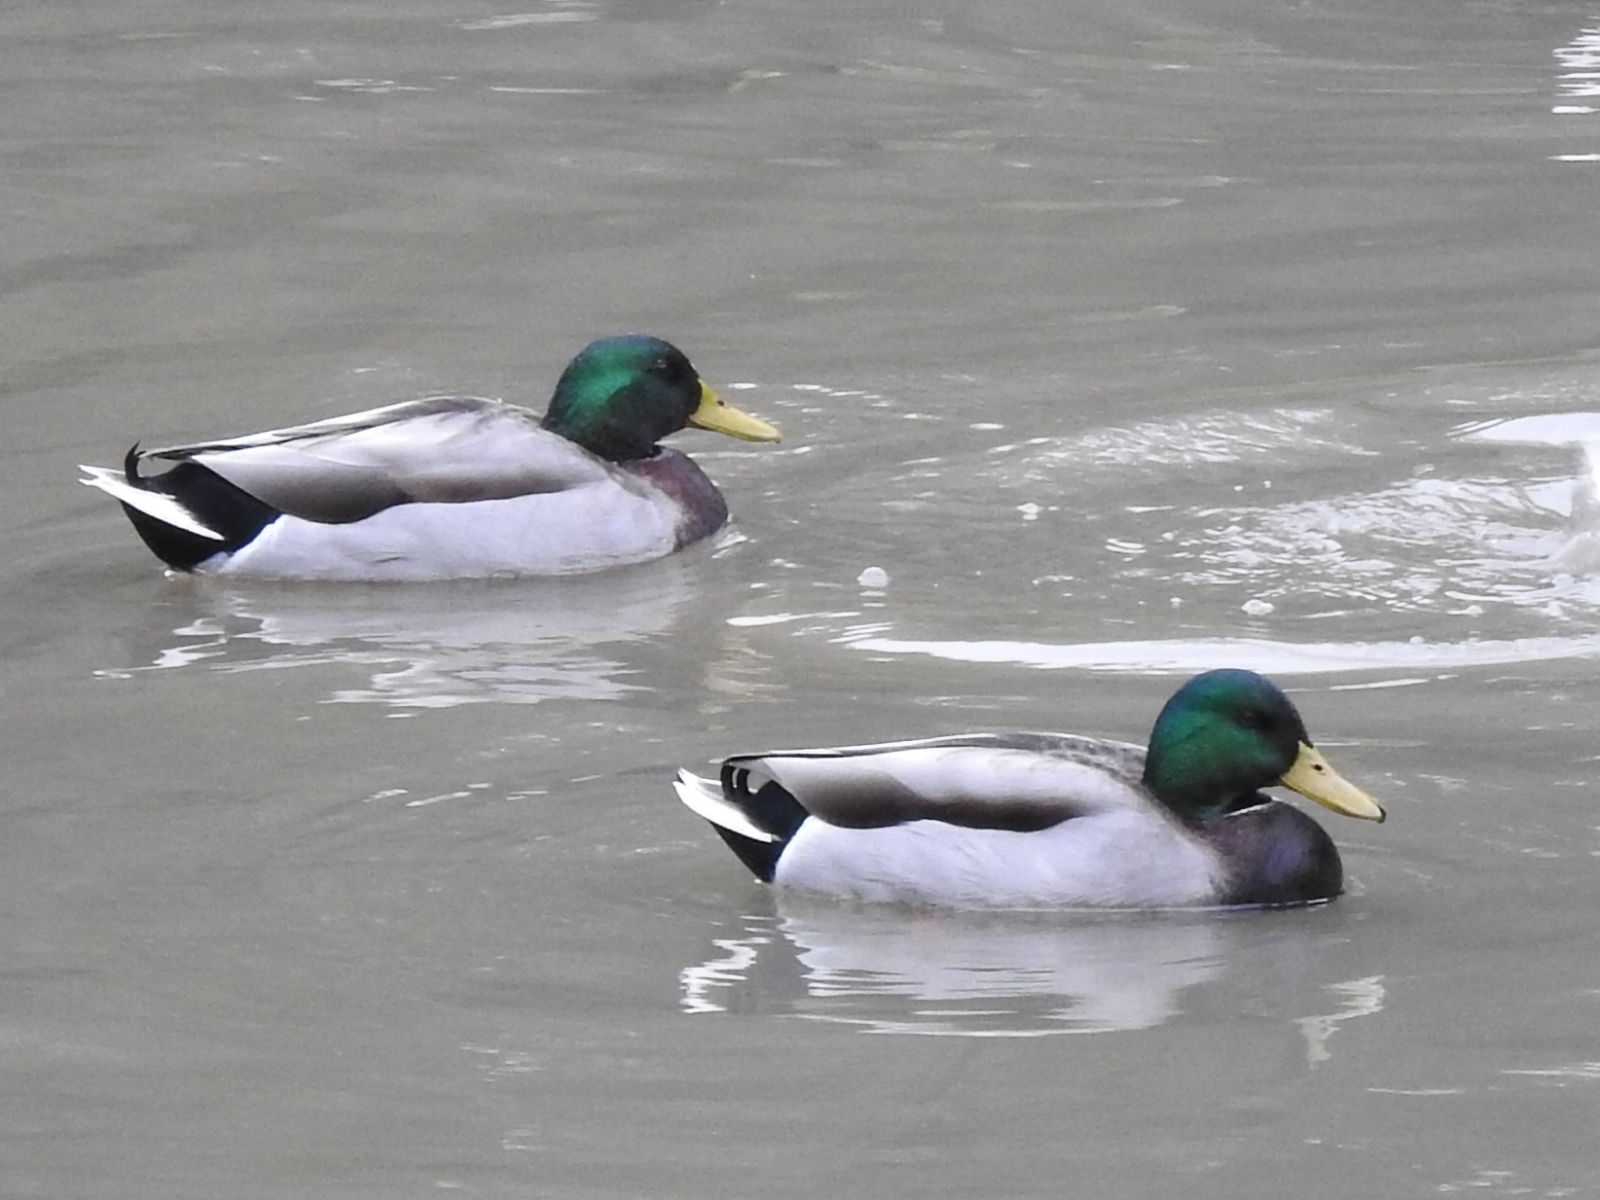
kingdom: Animalia
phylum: Chordata
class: Aves
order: Anseriformes
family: Anatidae
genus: Anas
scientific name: Anas platyrhynchos
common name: Mallard
